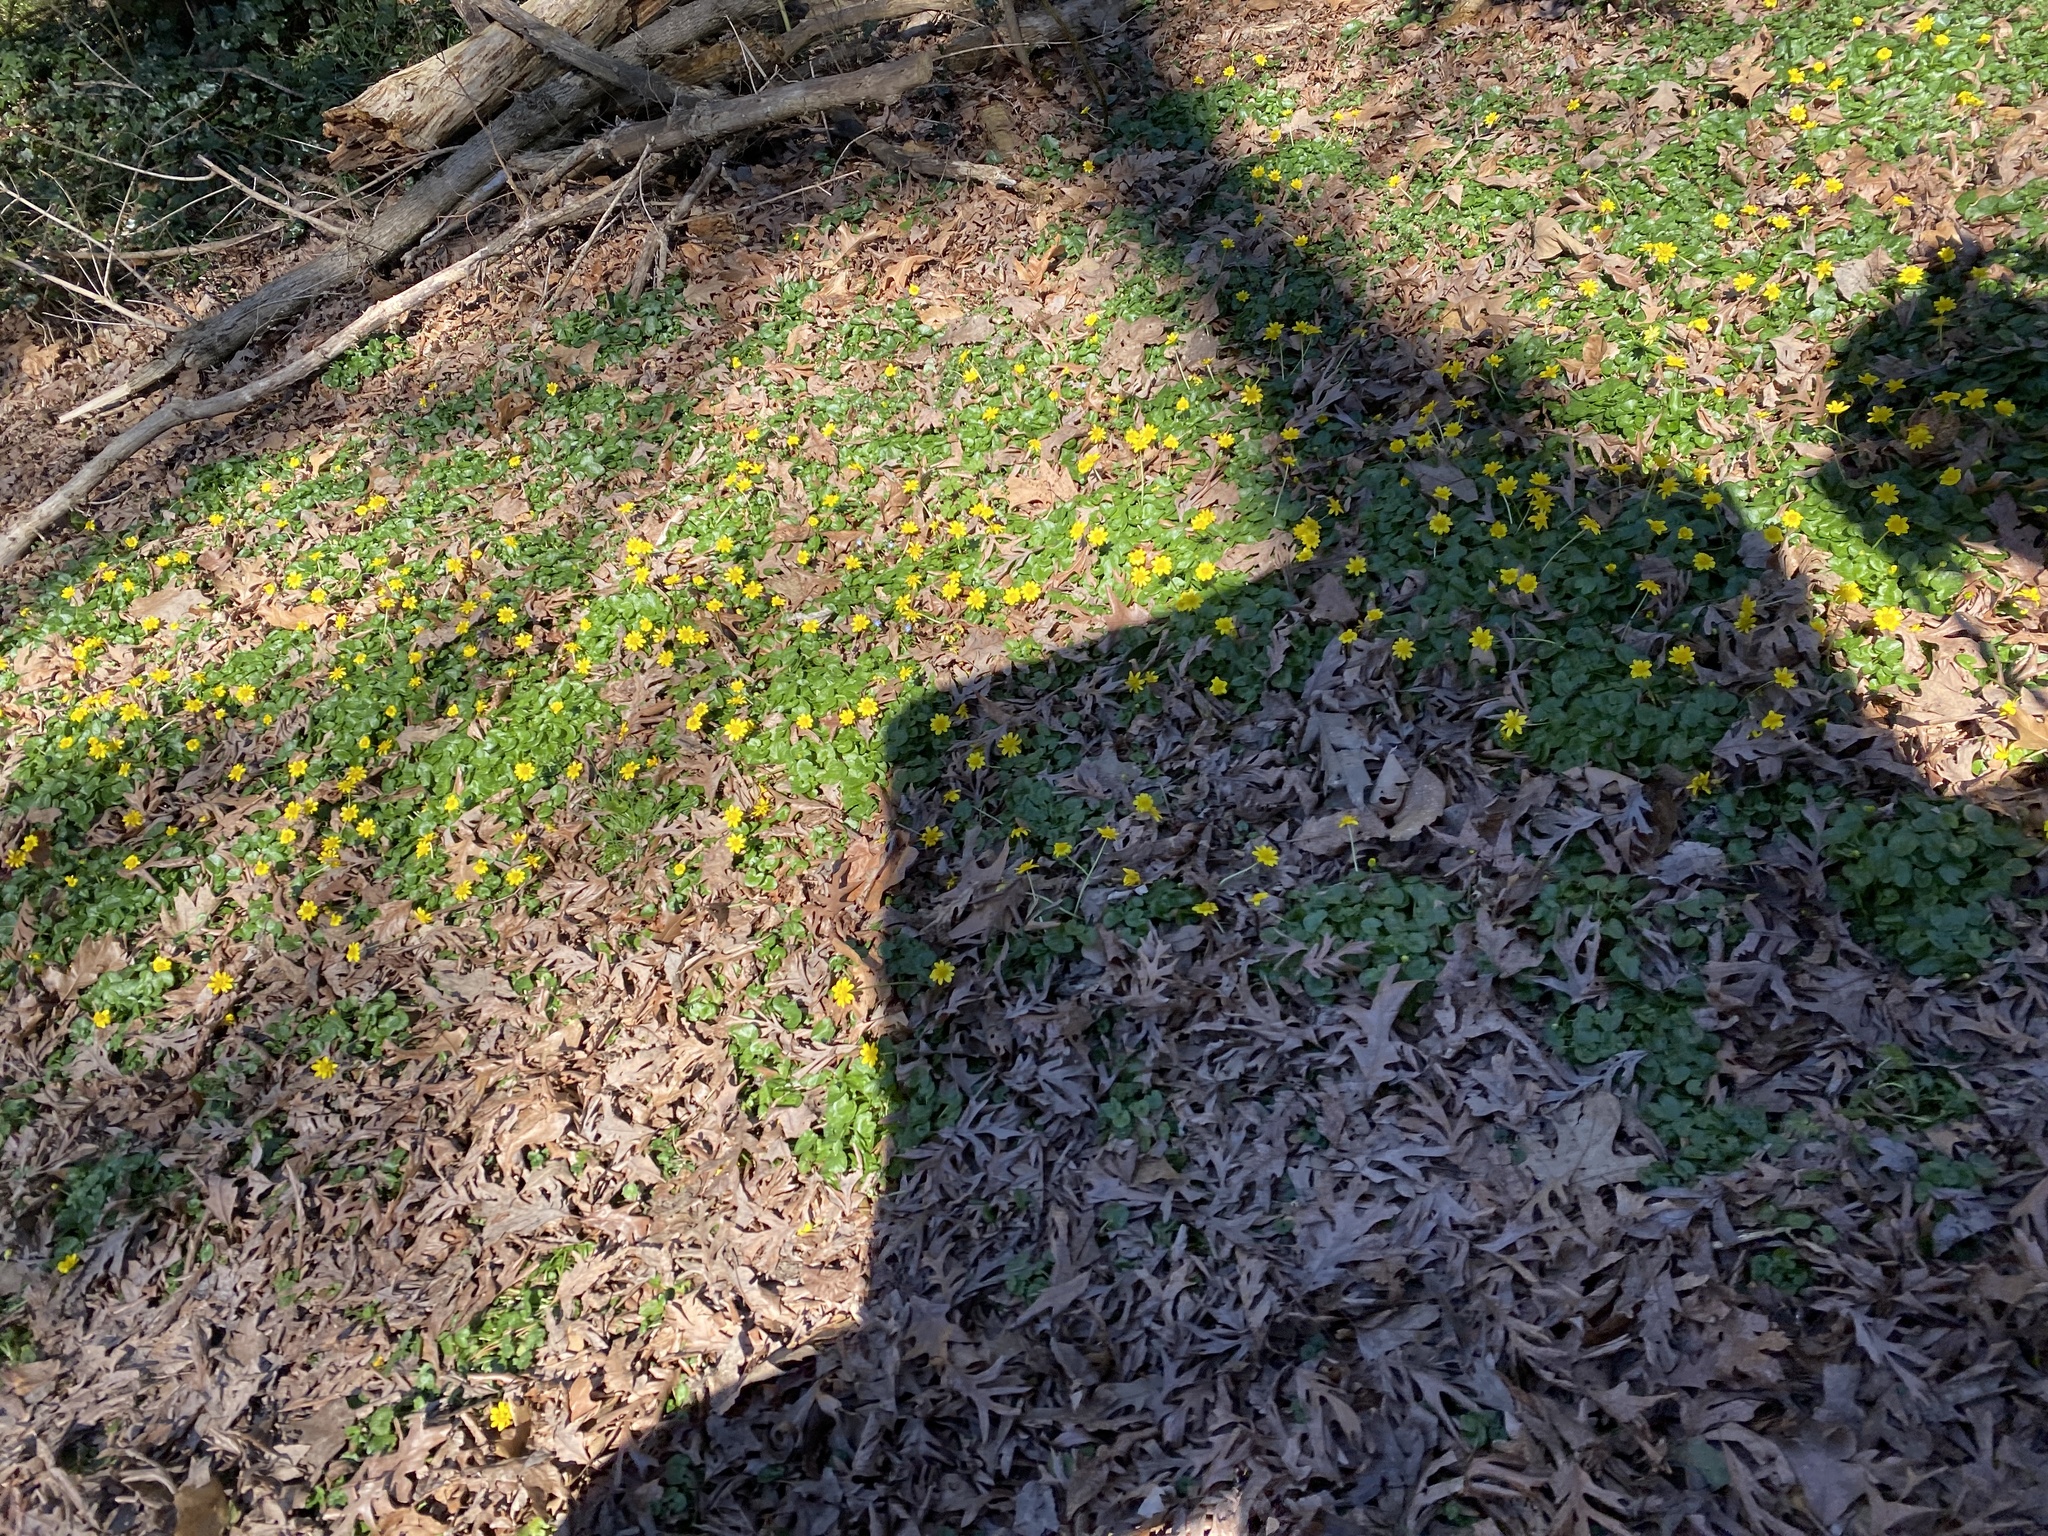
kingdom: Plantae
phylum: Tracheophyta
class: Magnoliopsida
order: Ranunculales
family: Ranunculaceae
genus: Ficaria
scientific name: Ficaria verna
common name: Lesser celandine
